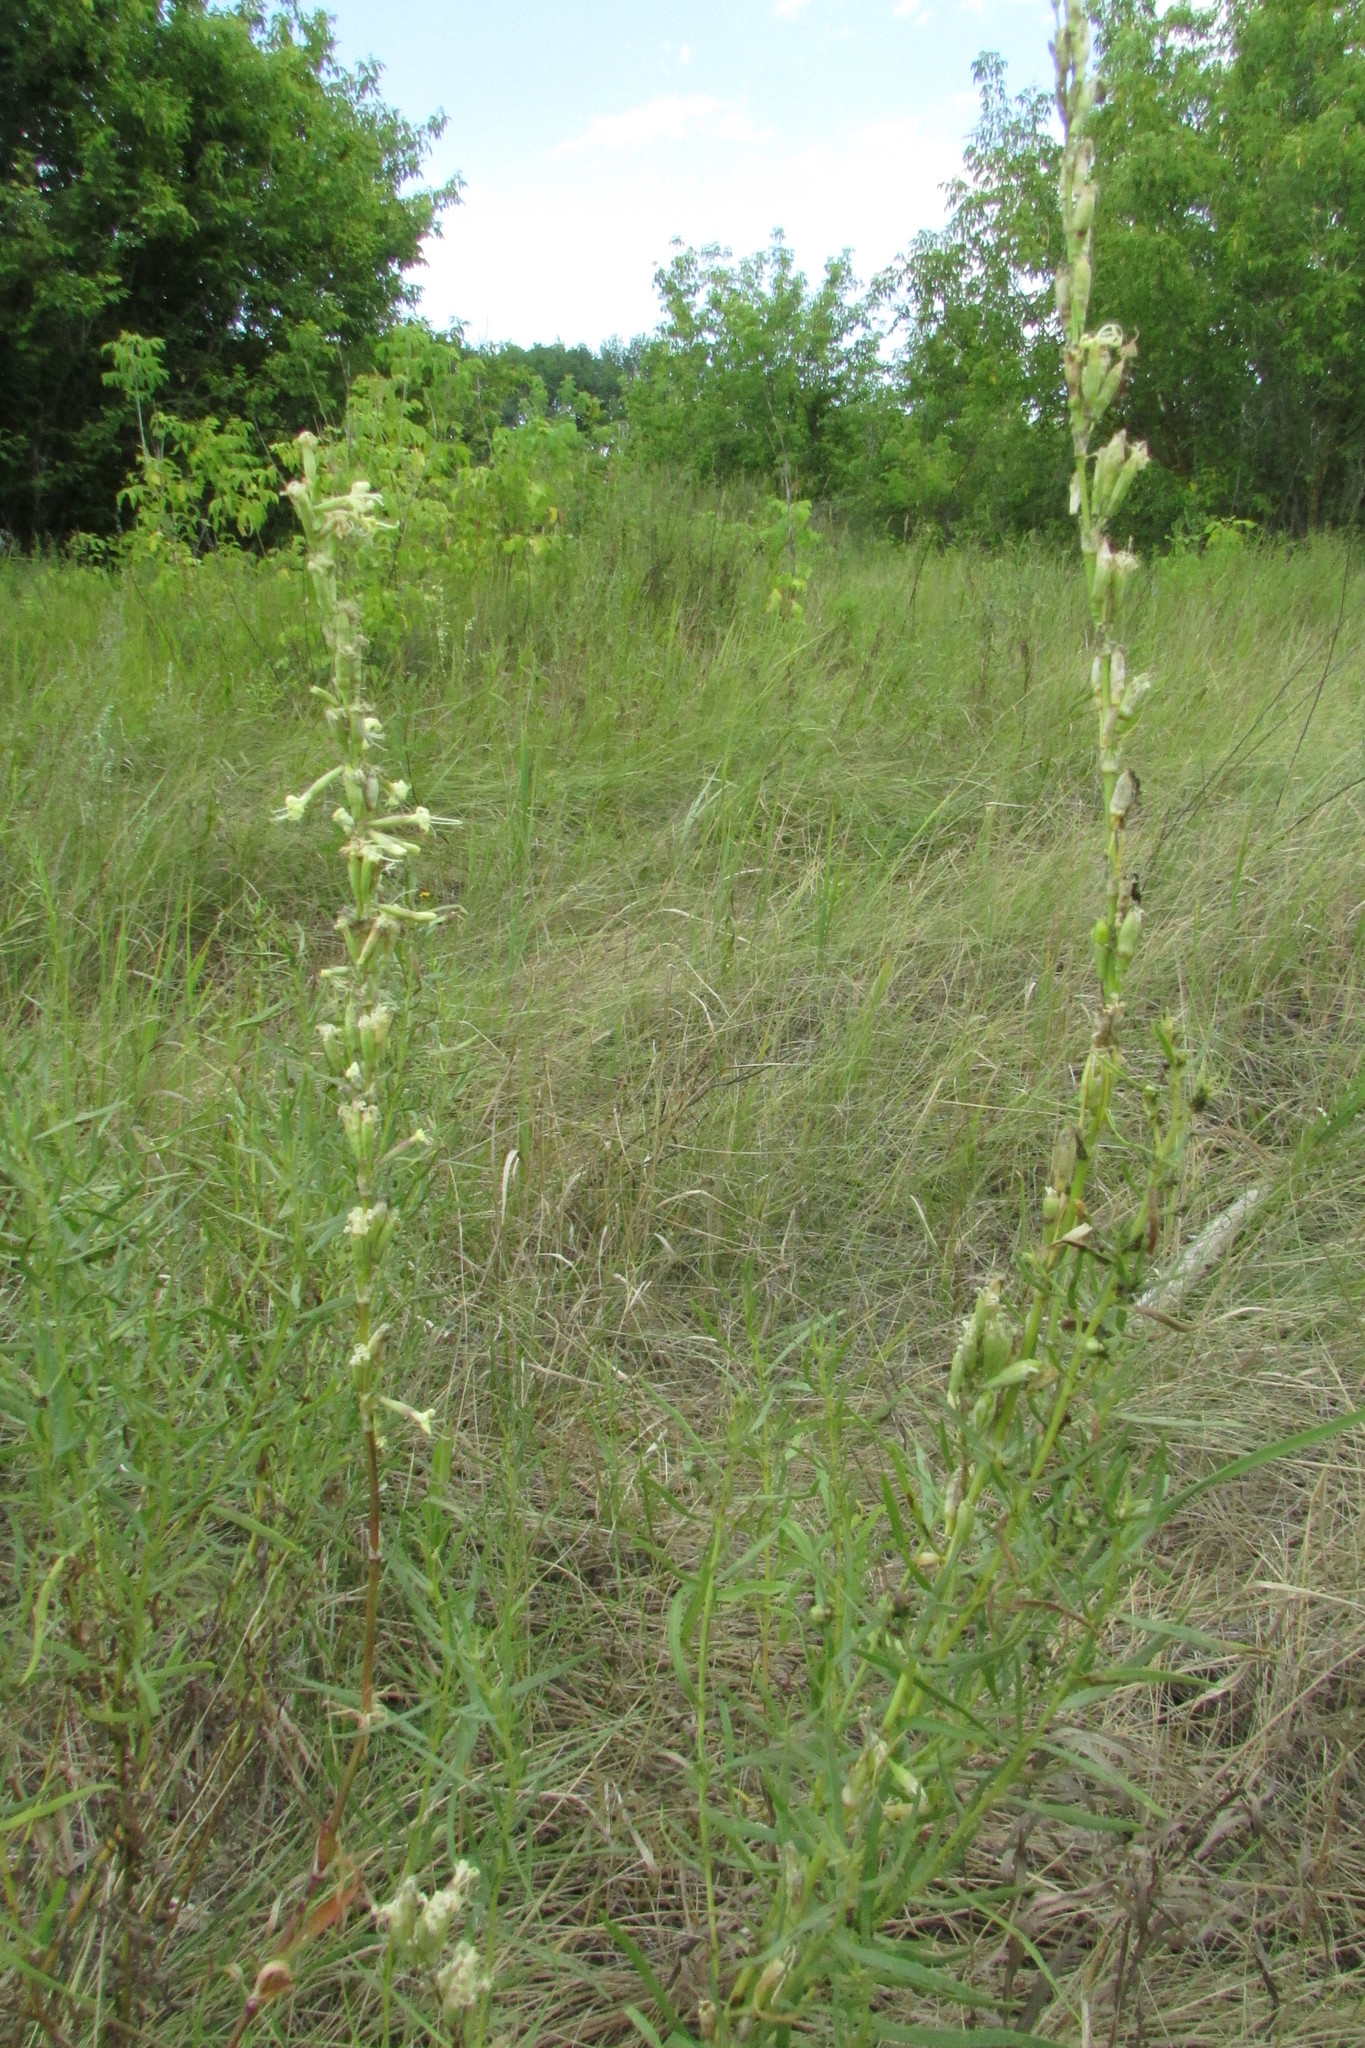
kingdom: Plantae
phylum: Tracheophyta
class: Magnoliopsida
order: Caryophyllales
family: Caryophyllaceae
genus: Silene
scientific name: Silene tatarica
